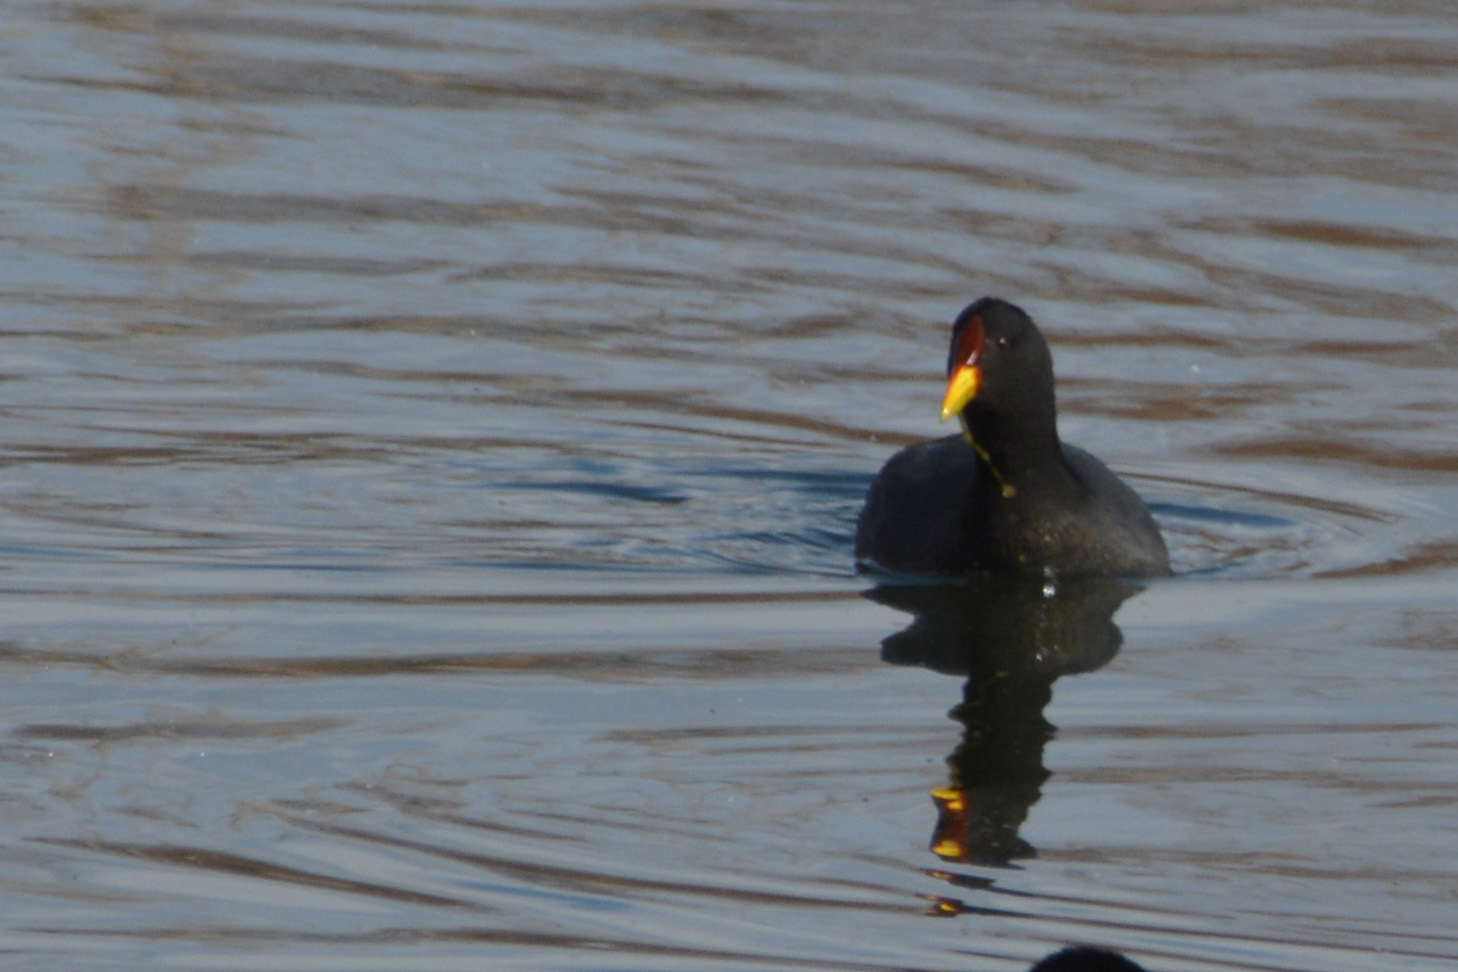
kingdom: Animalia
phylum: Chordata
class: Aves
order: Gruiformes
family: Rallidae
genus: Fulica
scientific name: Fulica rufifrons
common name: Red-fronted coot
